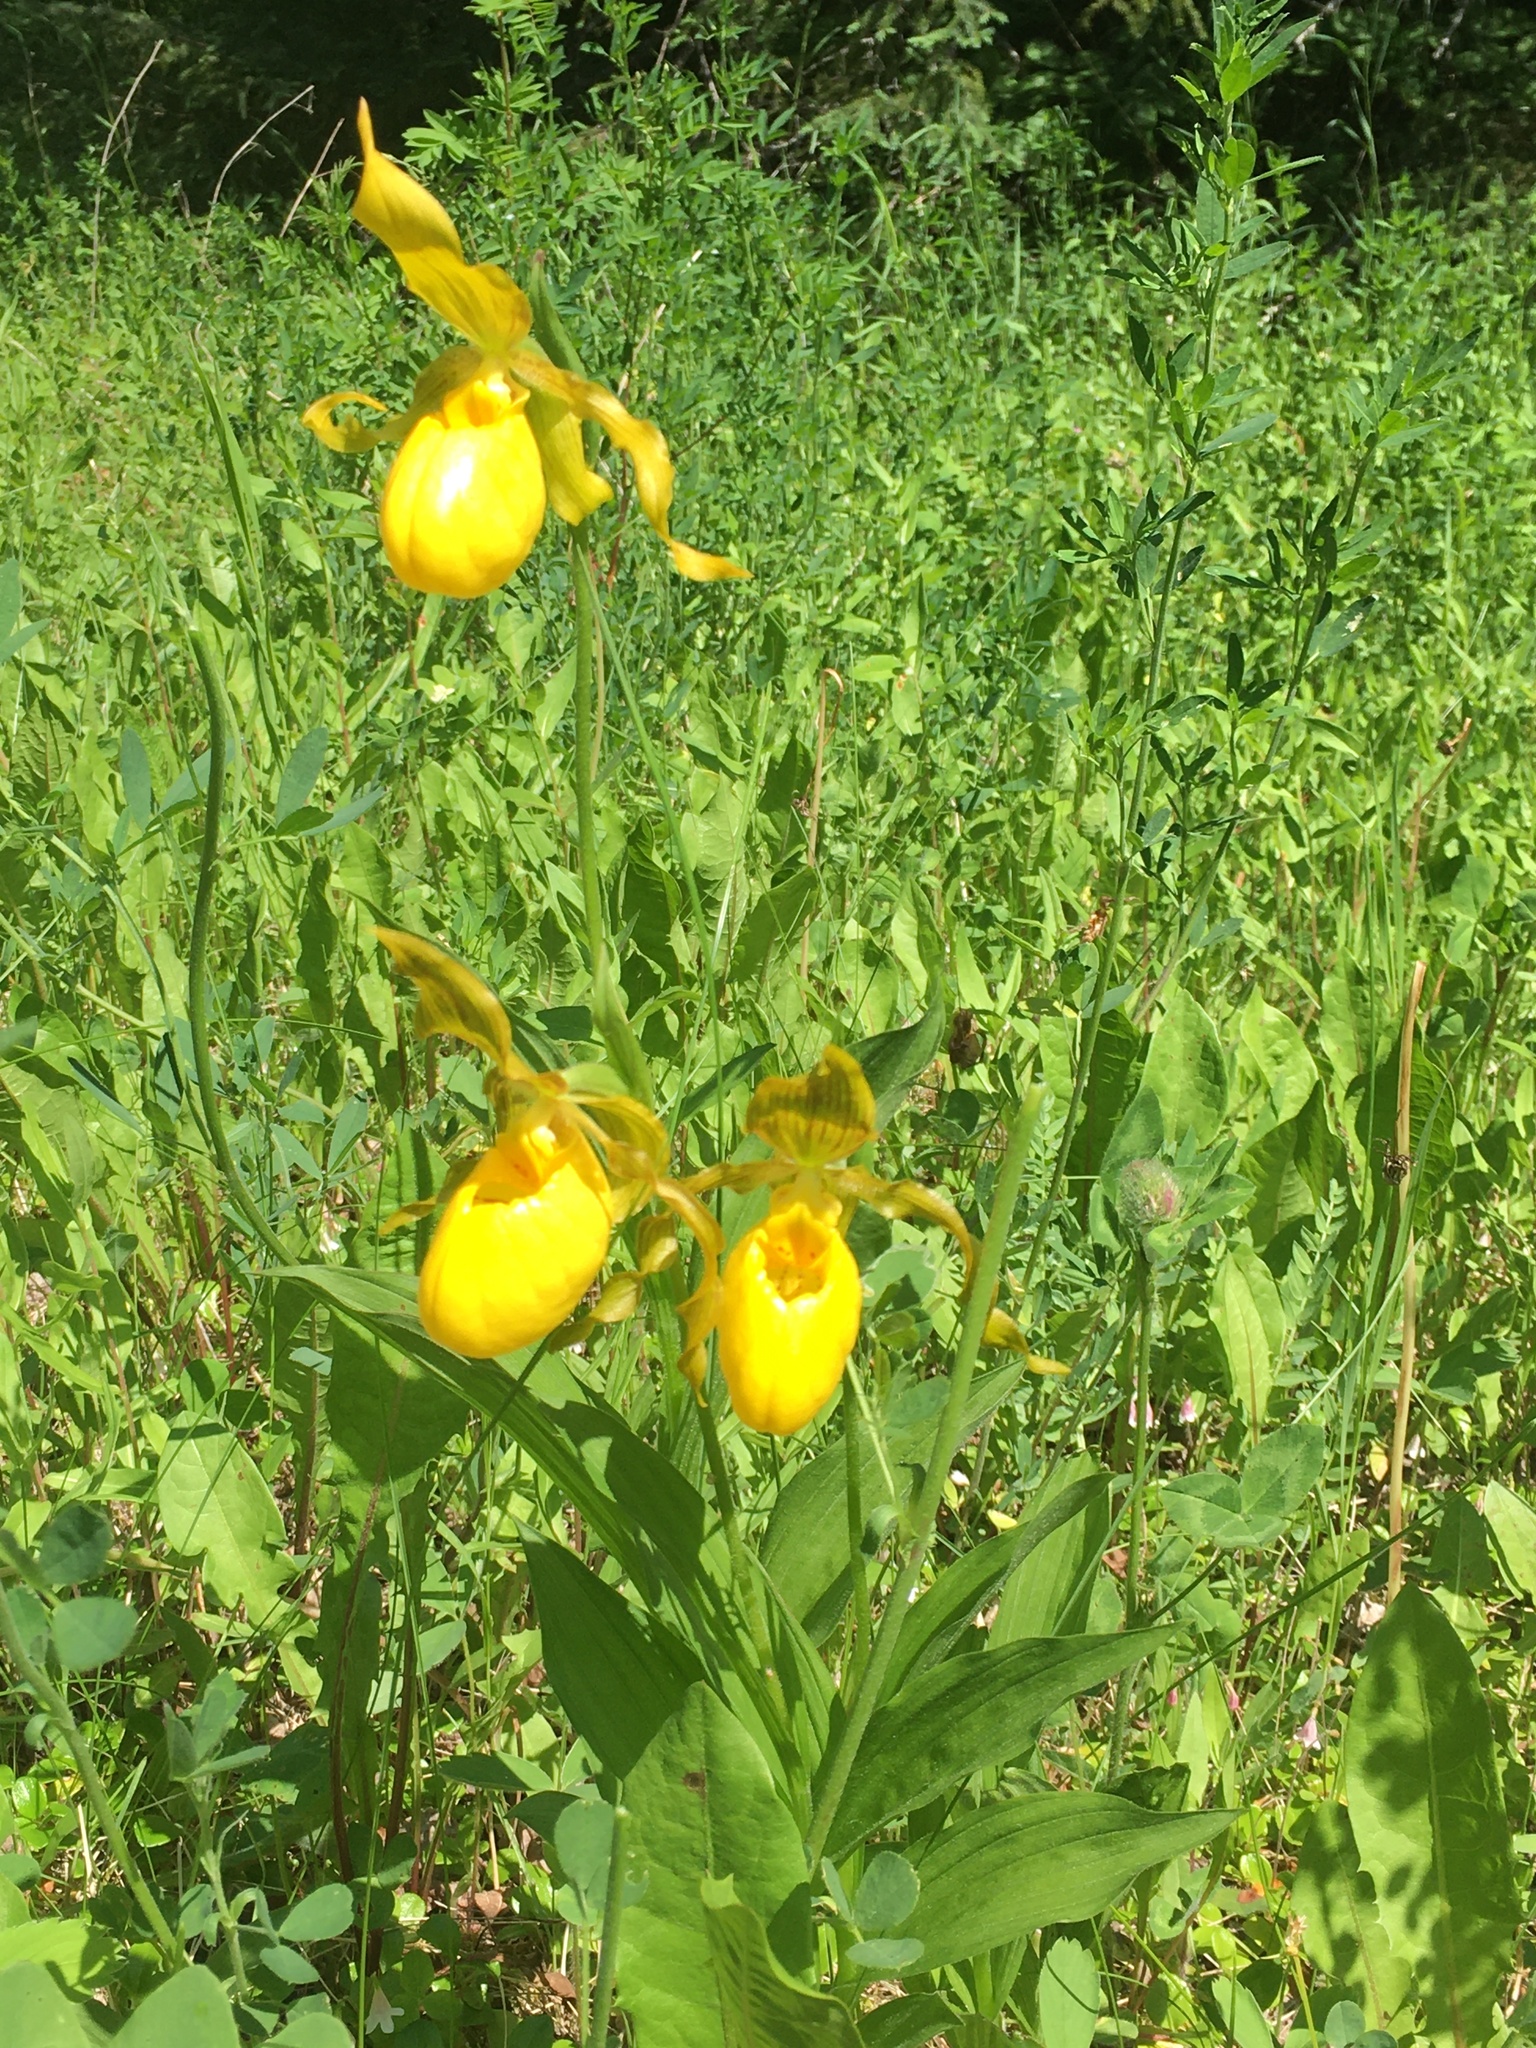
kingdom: Plantae
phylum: Tracheophyta
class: Liliopsida
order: Asparagales
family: Orchidaceae
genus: Cypripedium
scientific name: Cypripedium parviflorum
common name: American yellow lady's-slipper
